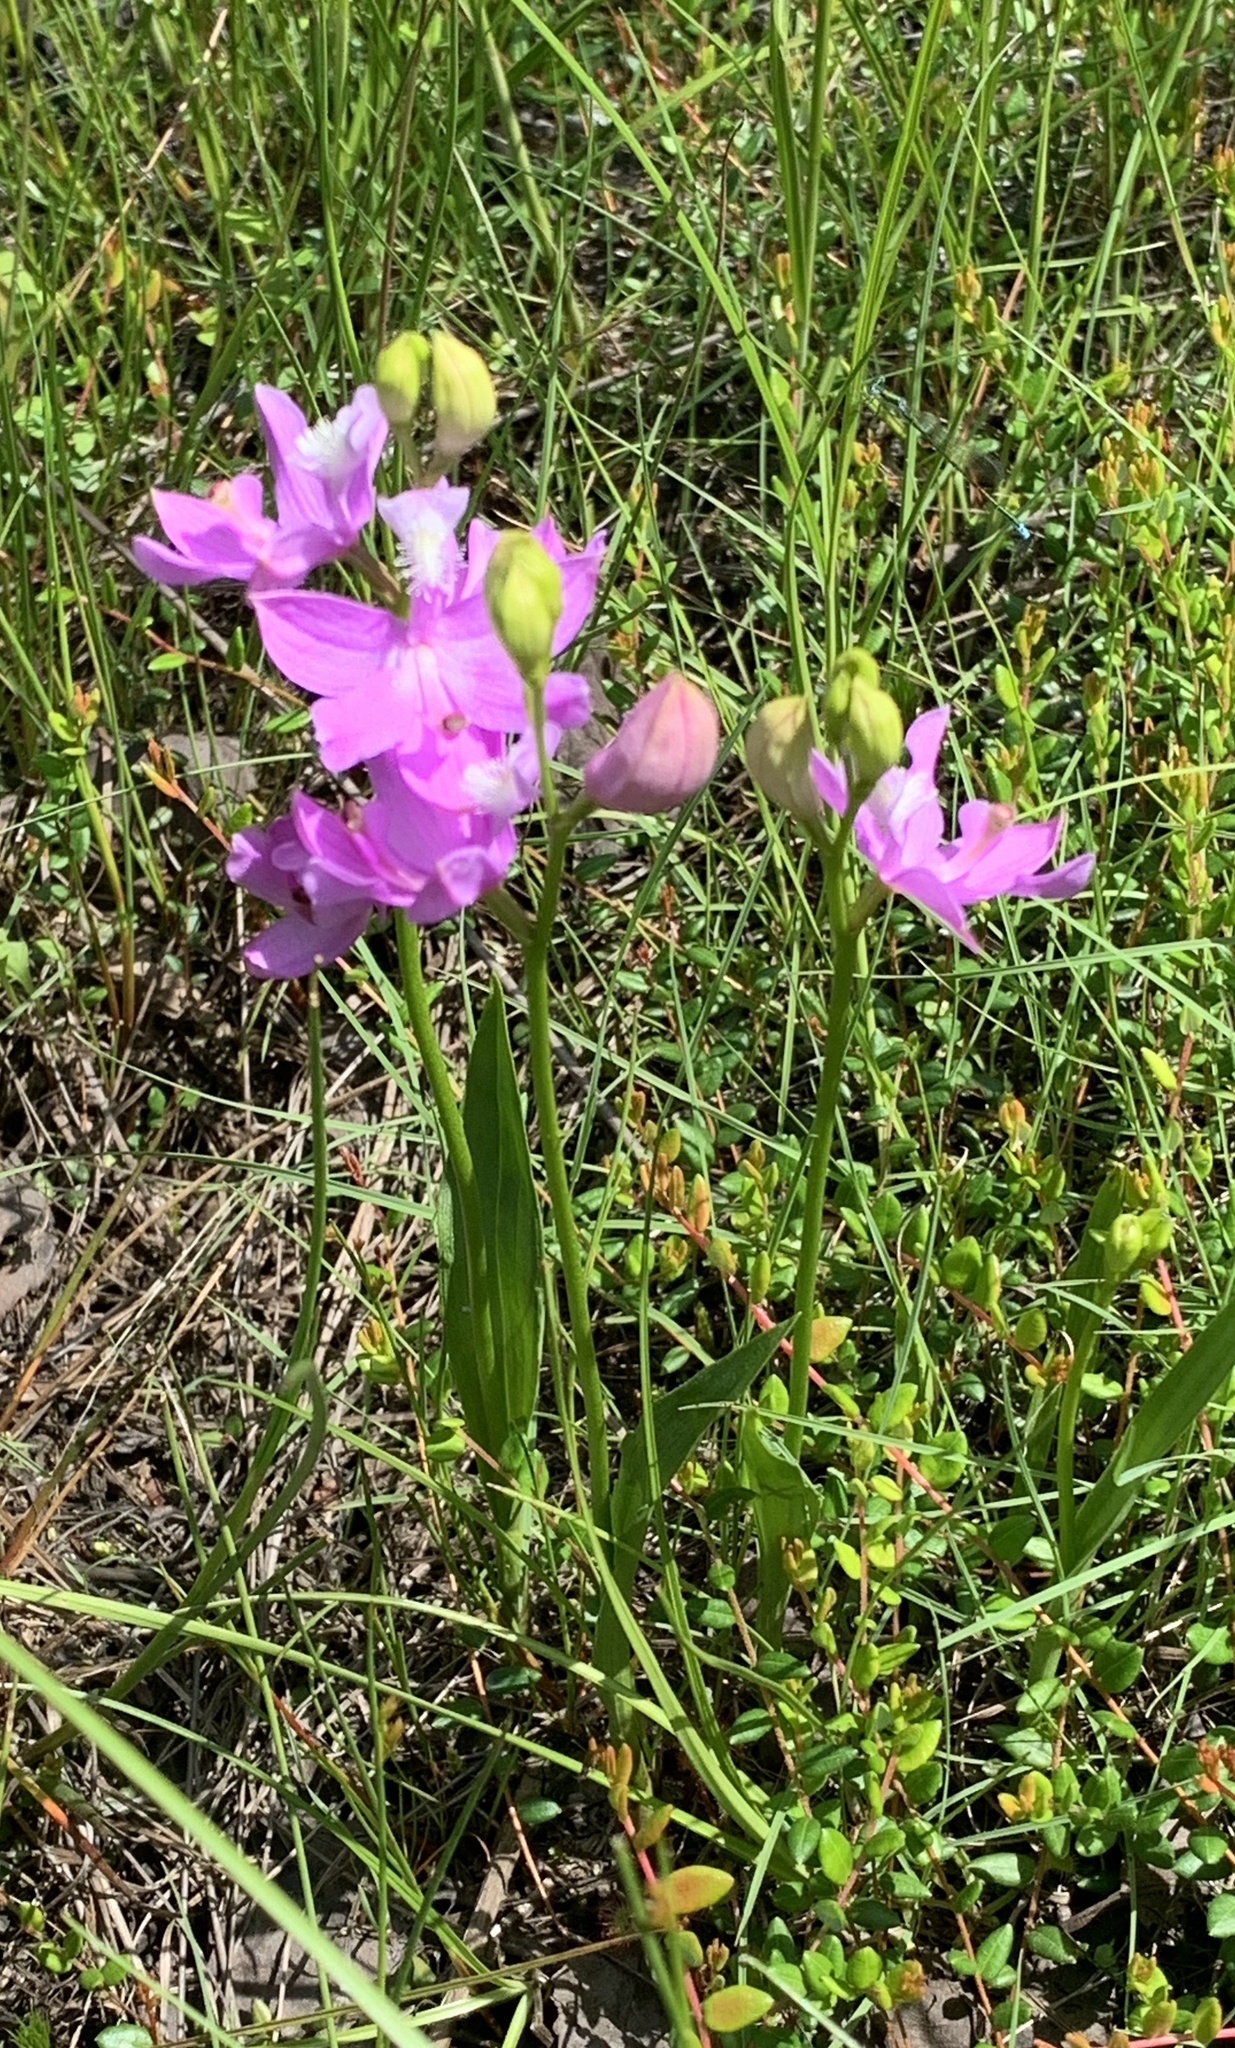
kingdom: Plantae
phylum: Tracheophyta
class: Liliopsida
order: Asparagales
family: Orchidaceae
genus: Calopogon
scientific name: Calopogon tuberosus
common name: Grass-pink
